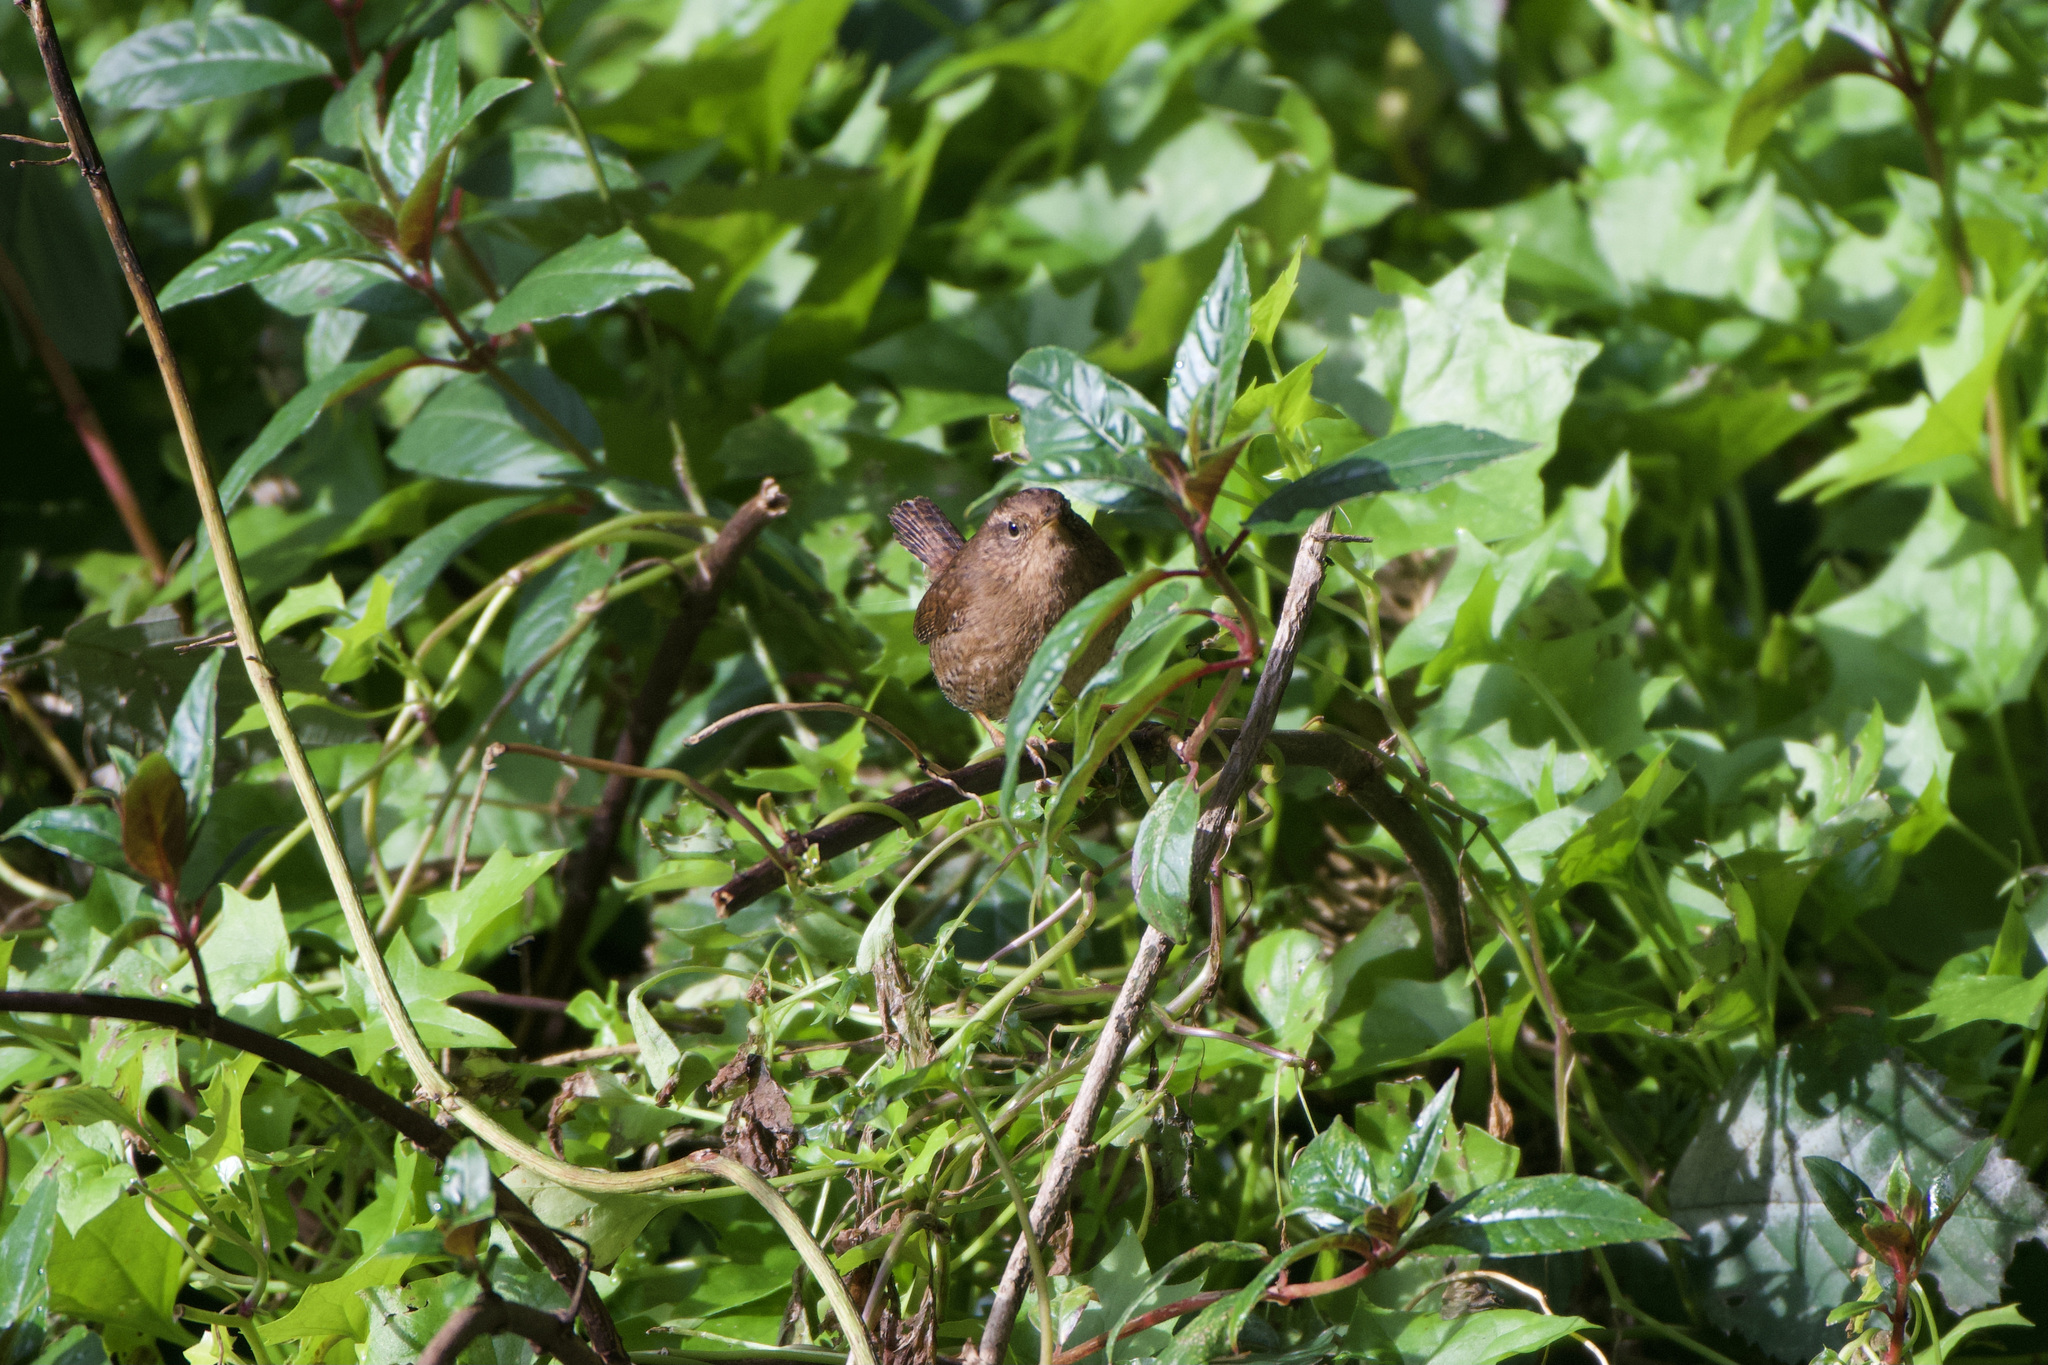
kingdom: Animalia
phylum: Chordata
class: Aves
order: Passeriformes
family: Troglodytidae
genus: Troglodytes
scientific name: Troglodytes pacificus
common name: Pacific wren
